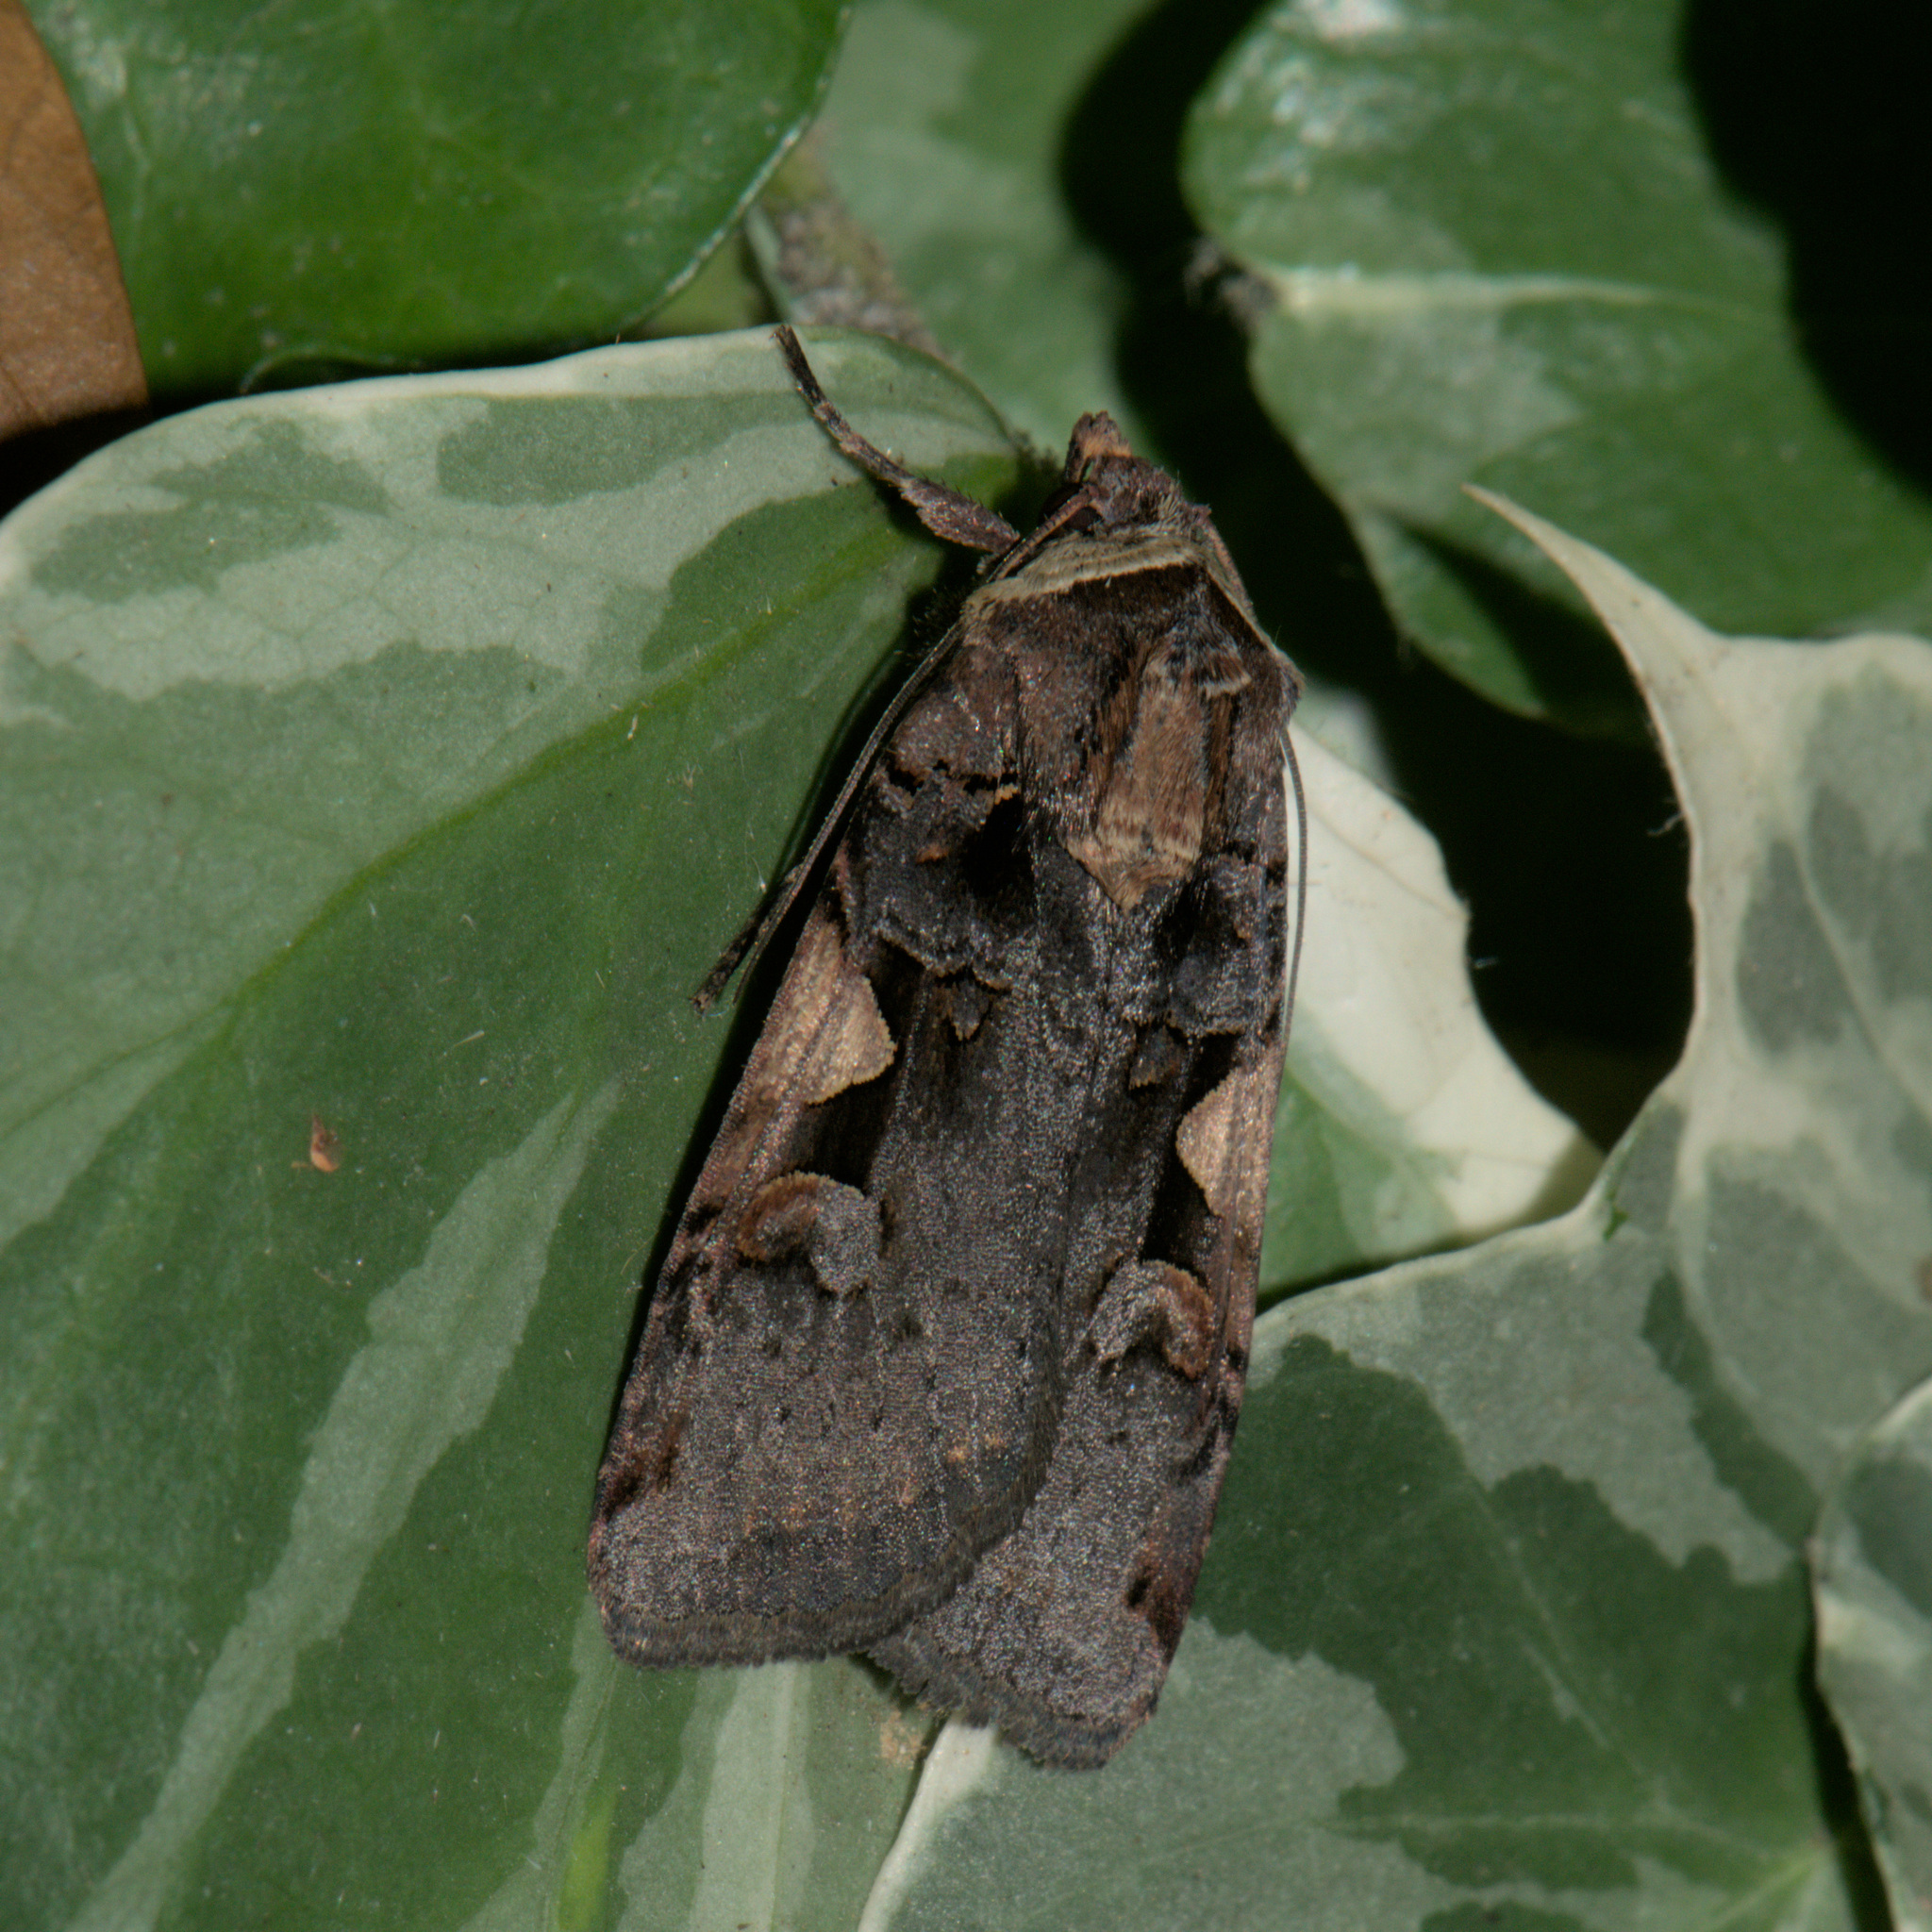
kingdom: Animalia
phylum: Arthropoda
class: Insecta
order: Lepidoptera
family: Noctuidae
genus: Xestia
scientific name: Xestia c-nigrum
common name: Setaceous hebrew character
